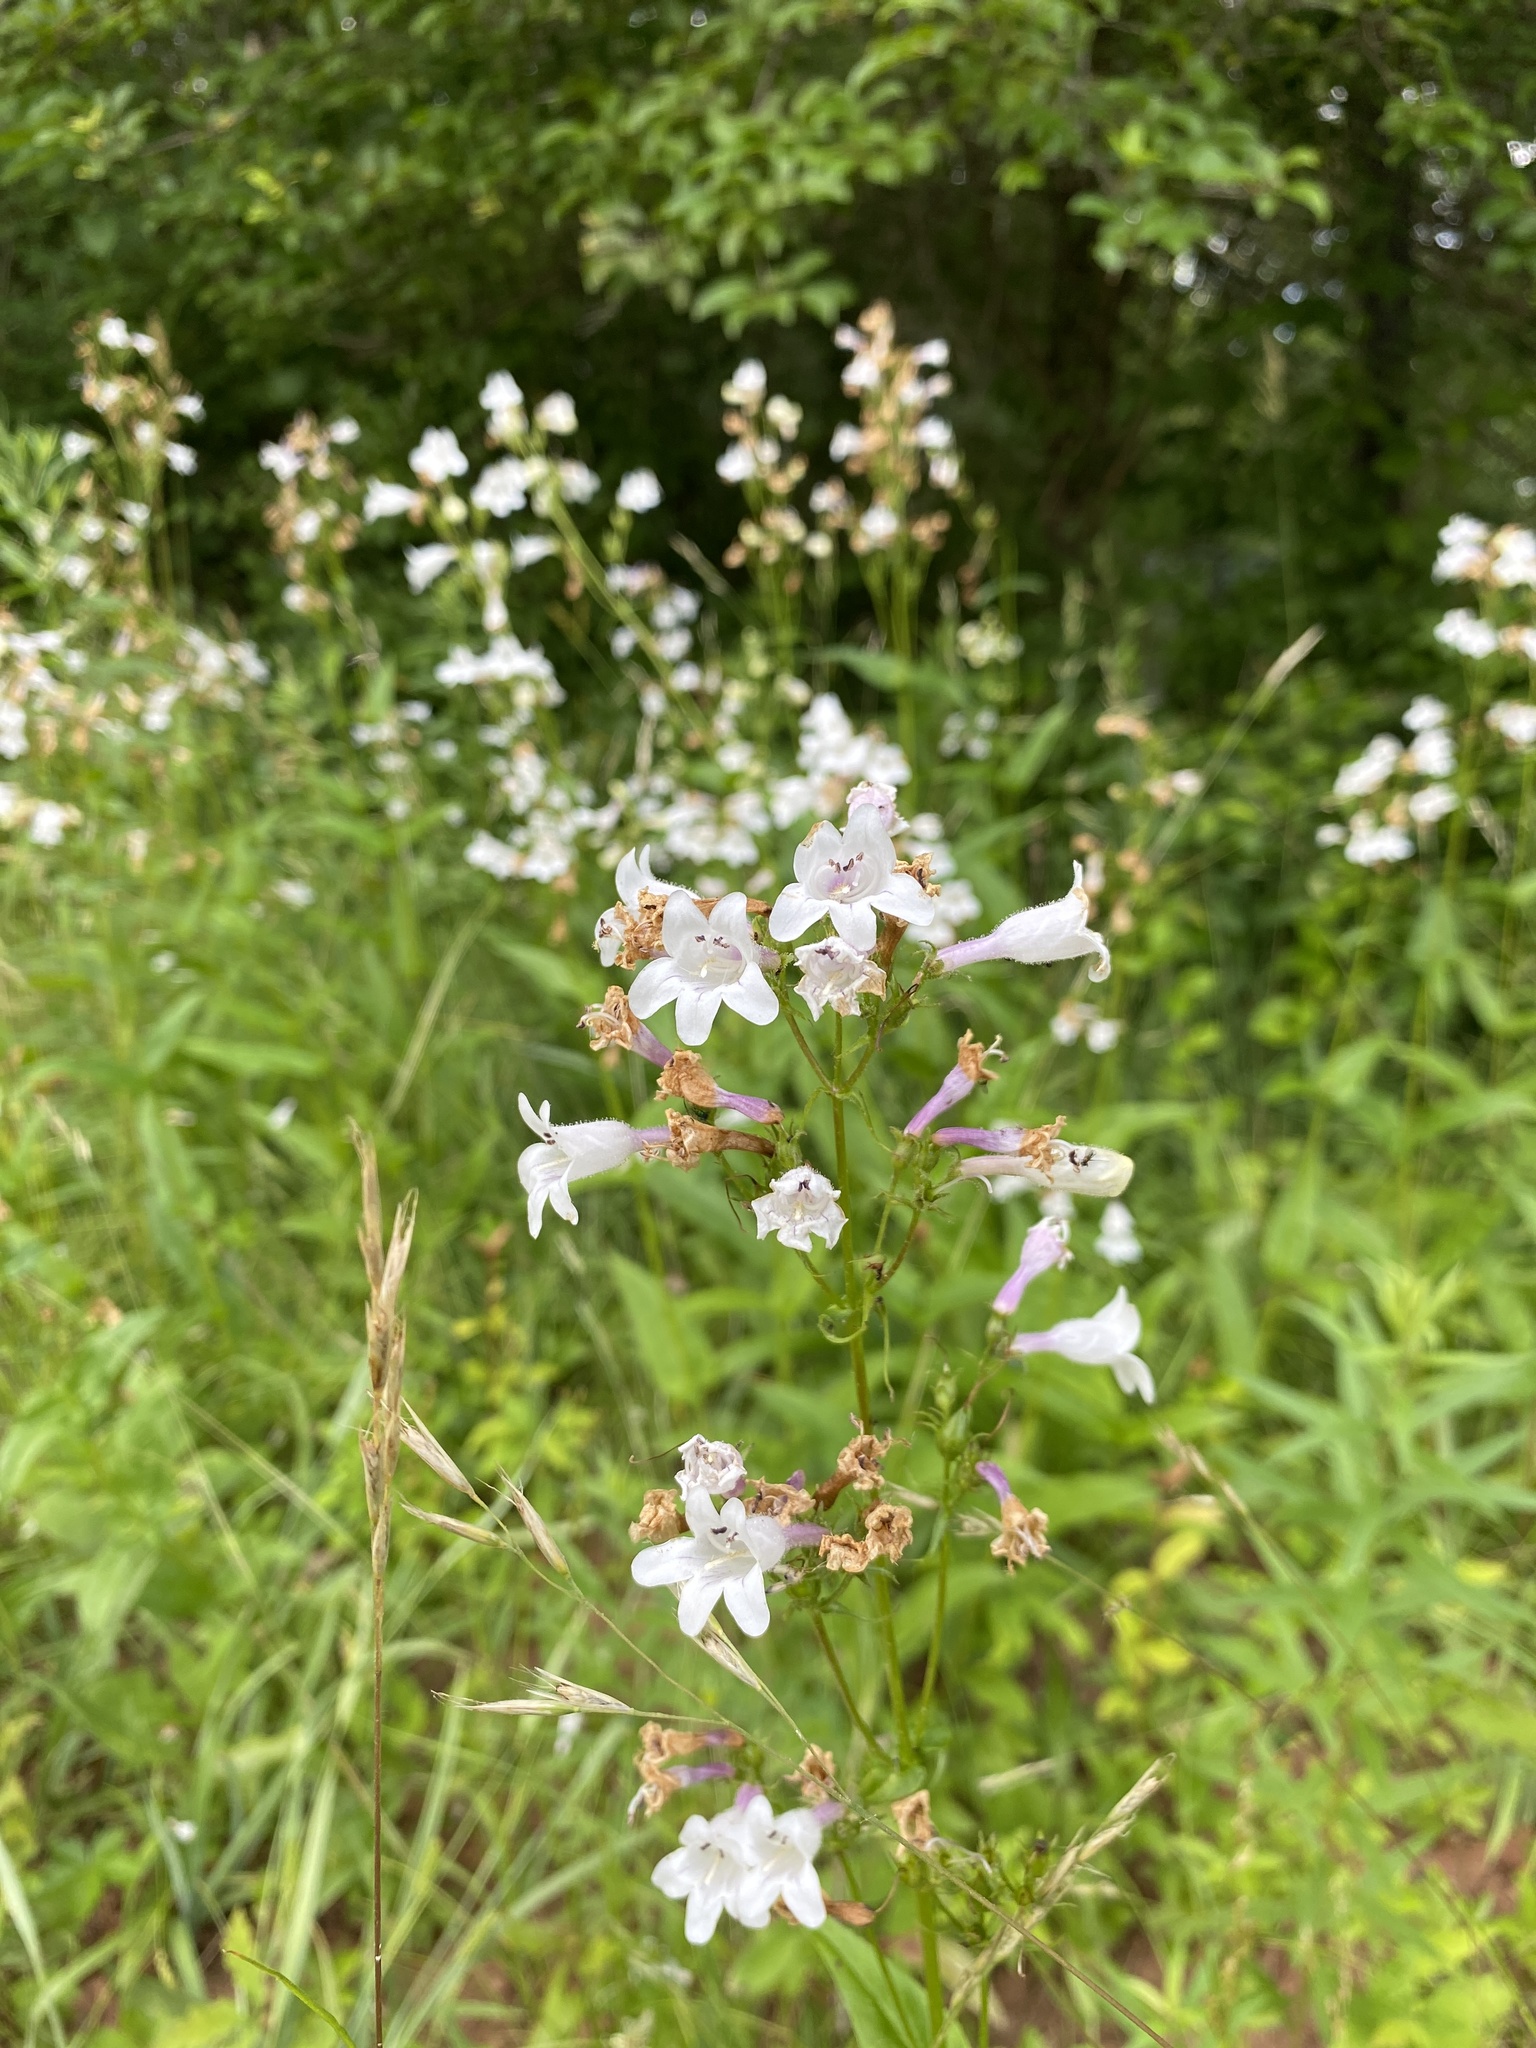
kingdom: Plantae
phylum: Tracheophyta
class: Magnoliopsida
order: Lamiales
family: Plantaginaceae
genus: Penstemon
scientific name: Penstemon digitalis
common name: Foxglove beardtongue
